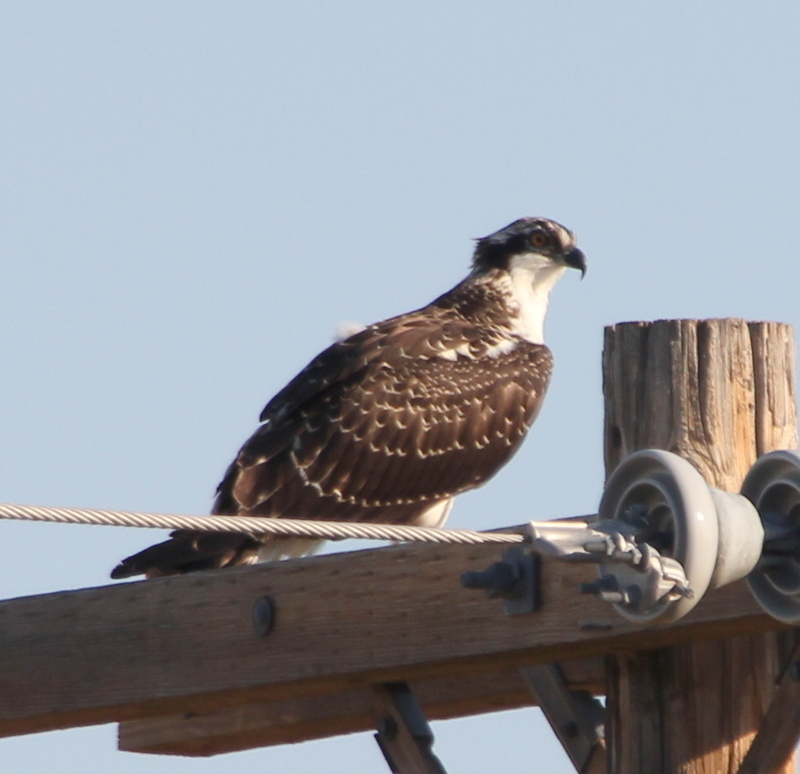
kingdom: Animalia
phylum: Chordata
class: Aves
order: Accipitriformes
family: Pandionidae
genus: Pandion
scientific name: Pandion haliaetus
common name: Osprey
